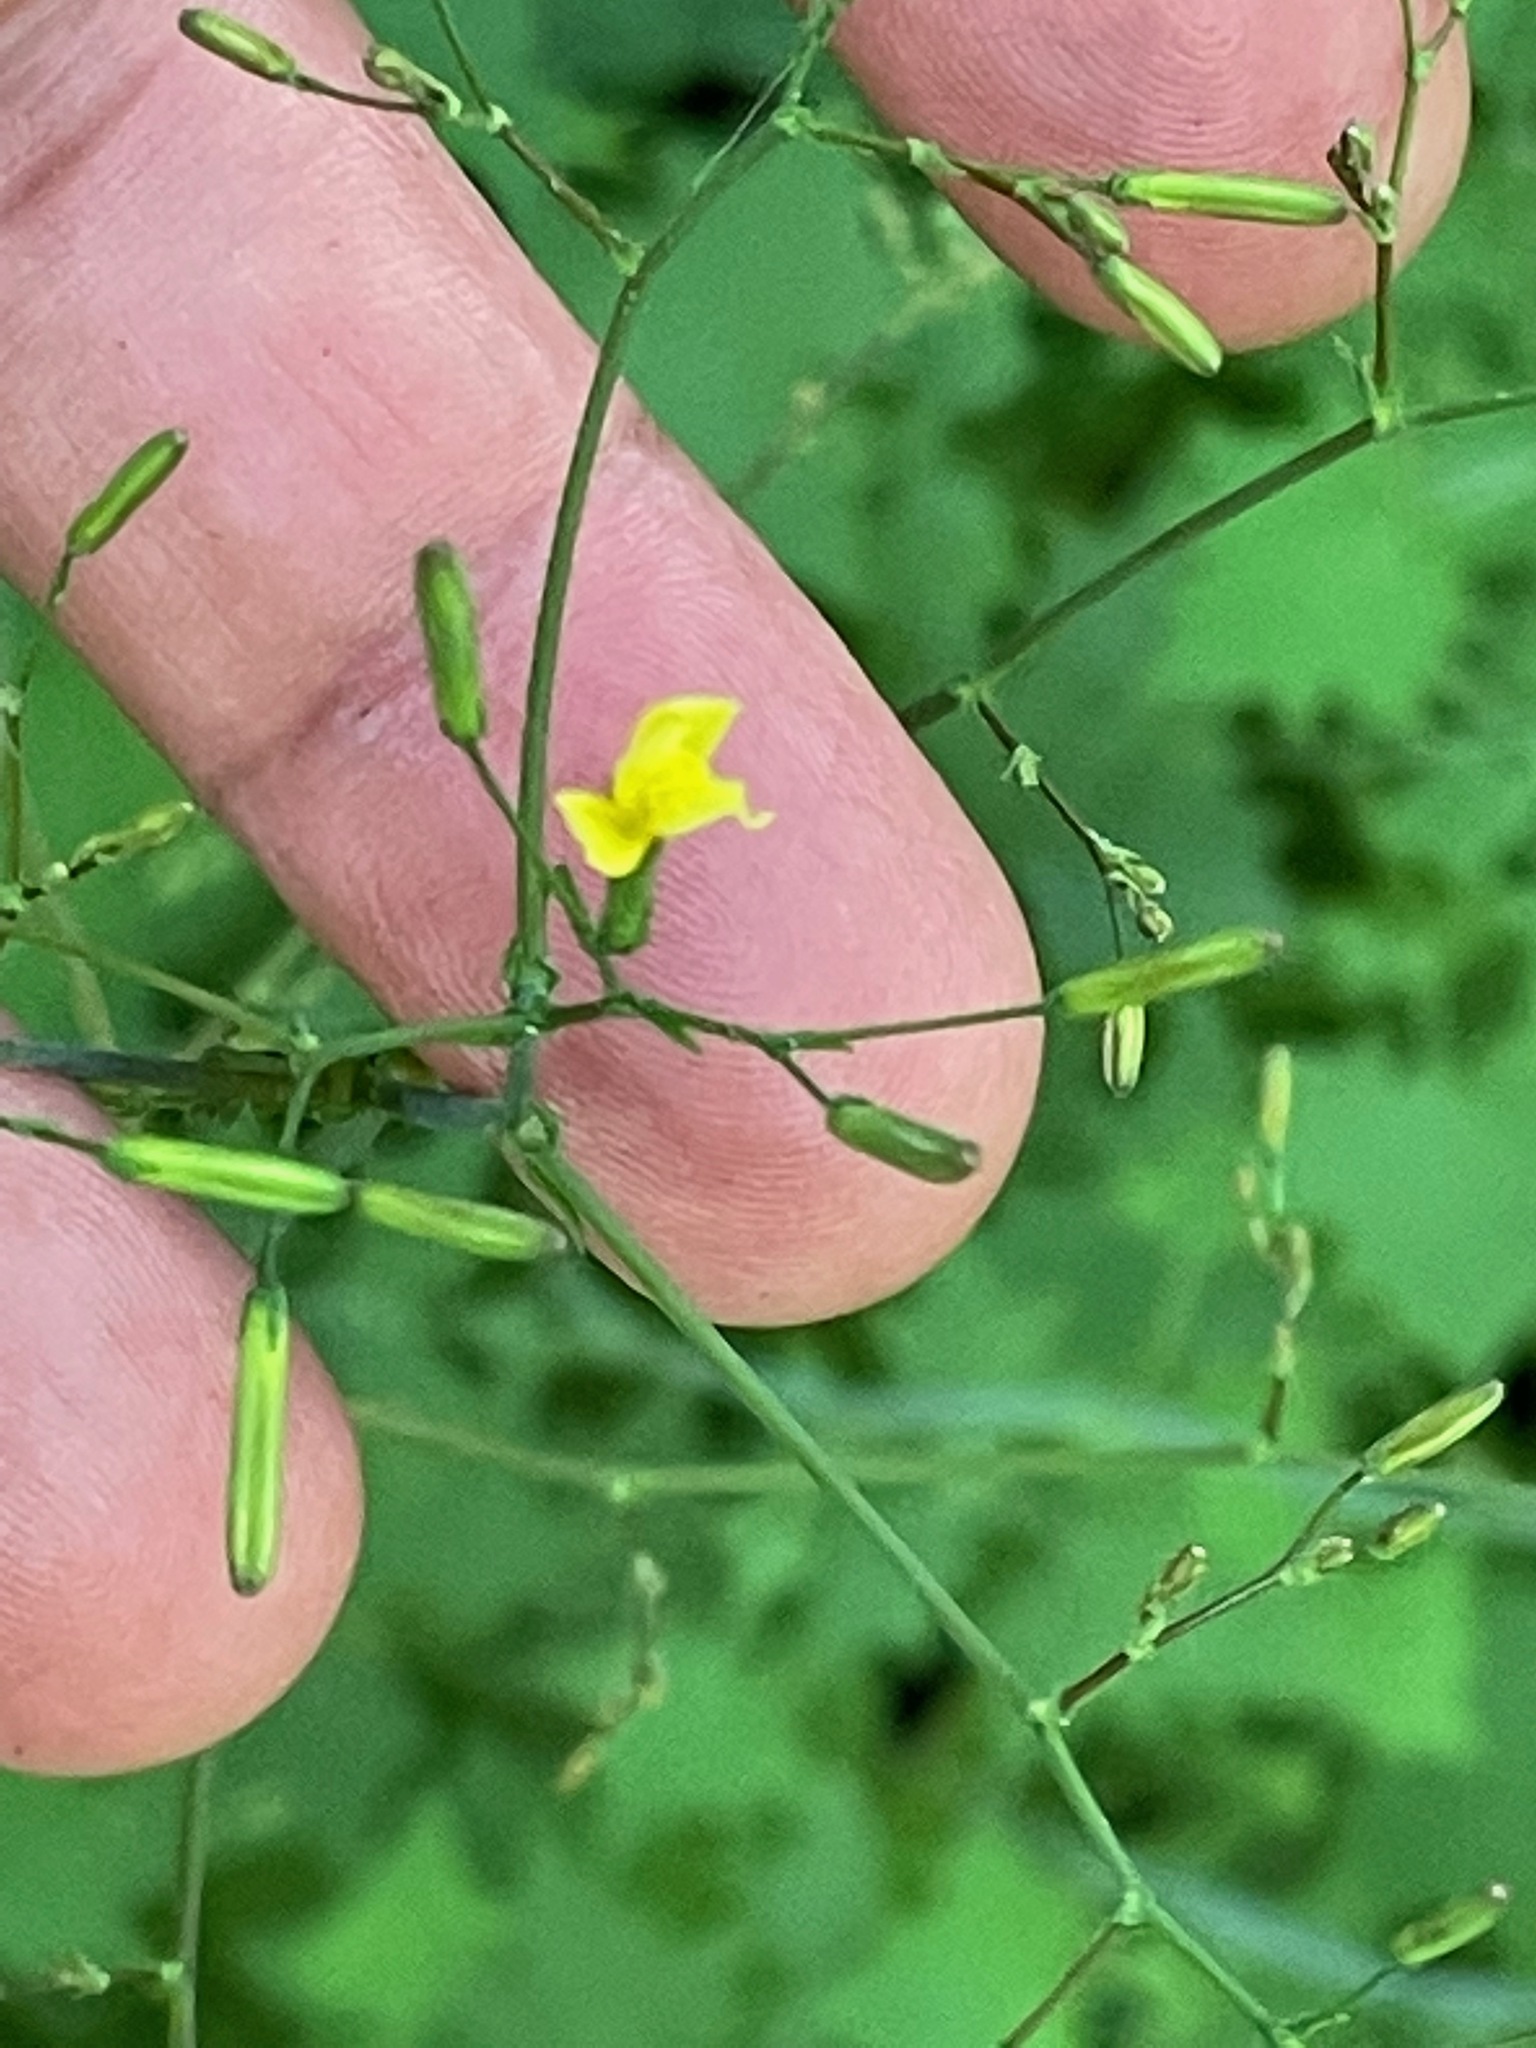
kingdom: Plantae
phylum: Tracheophyta
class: Magnoliopsida
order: Asterales
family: Asteraceae
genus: Mycelis
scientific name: Mycelis muralis
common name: Wall lettuce
